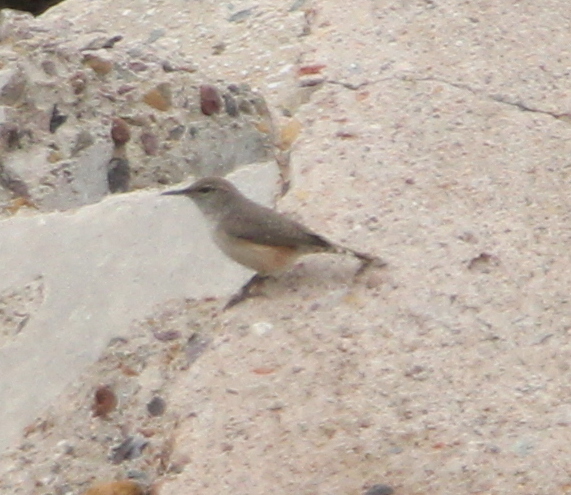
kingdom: Animalia
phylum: Chordata
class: Aves
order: Passeriformes
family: Troglodytidae
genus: Salpinctes
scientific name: Salpinctes obsoletus
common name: Rock wren
